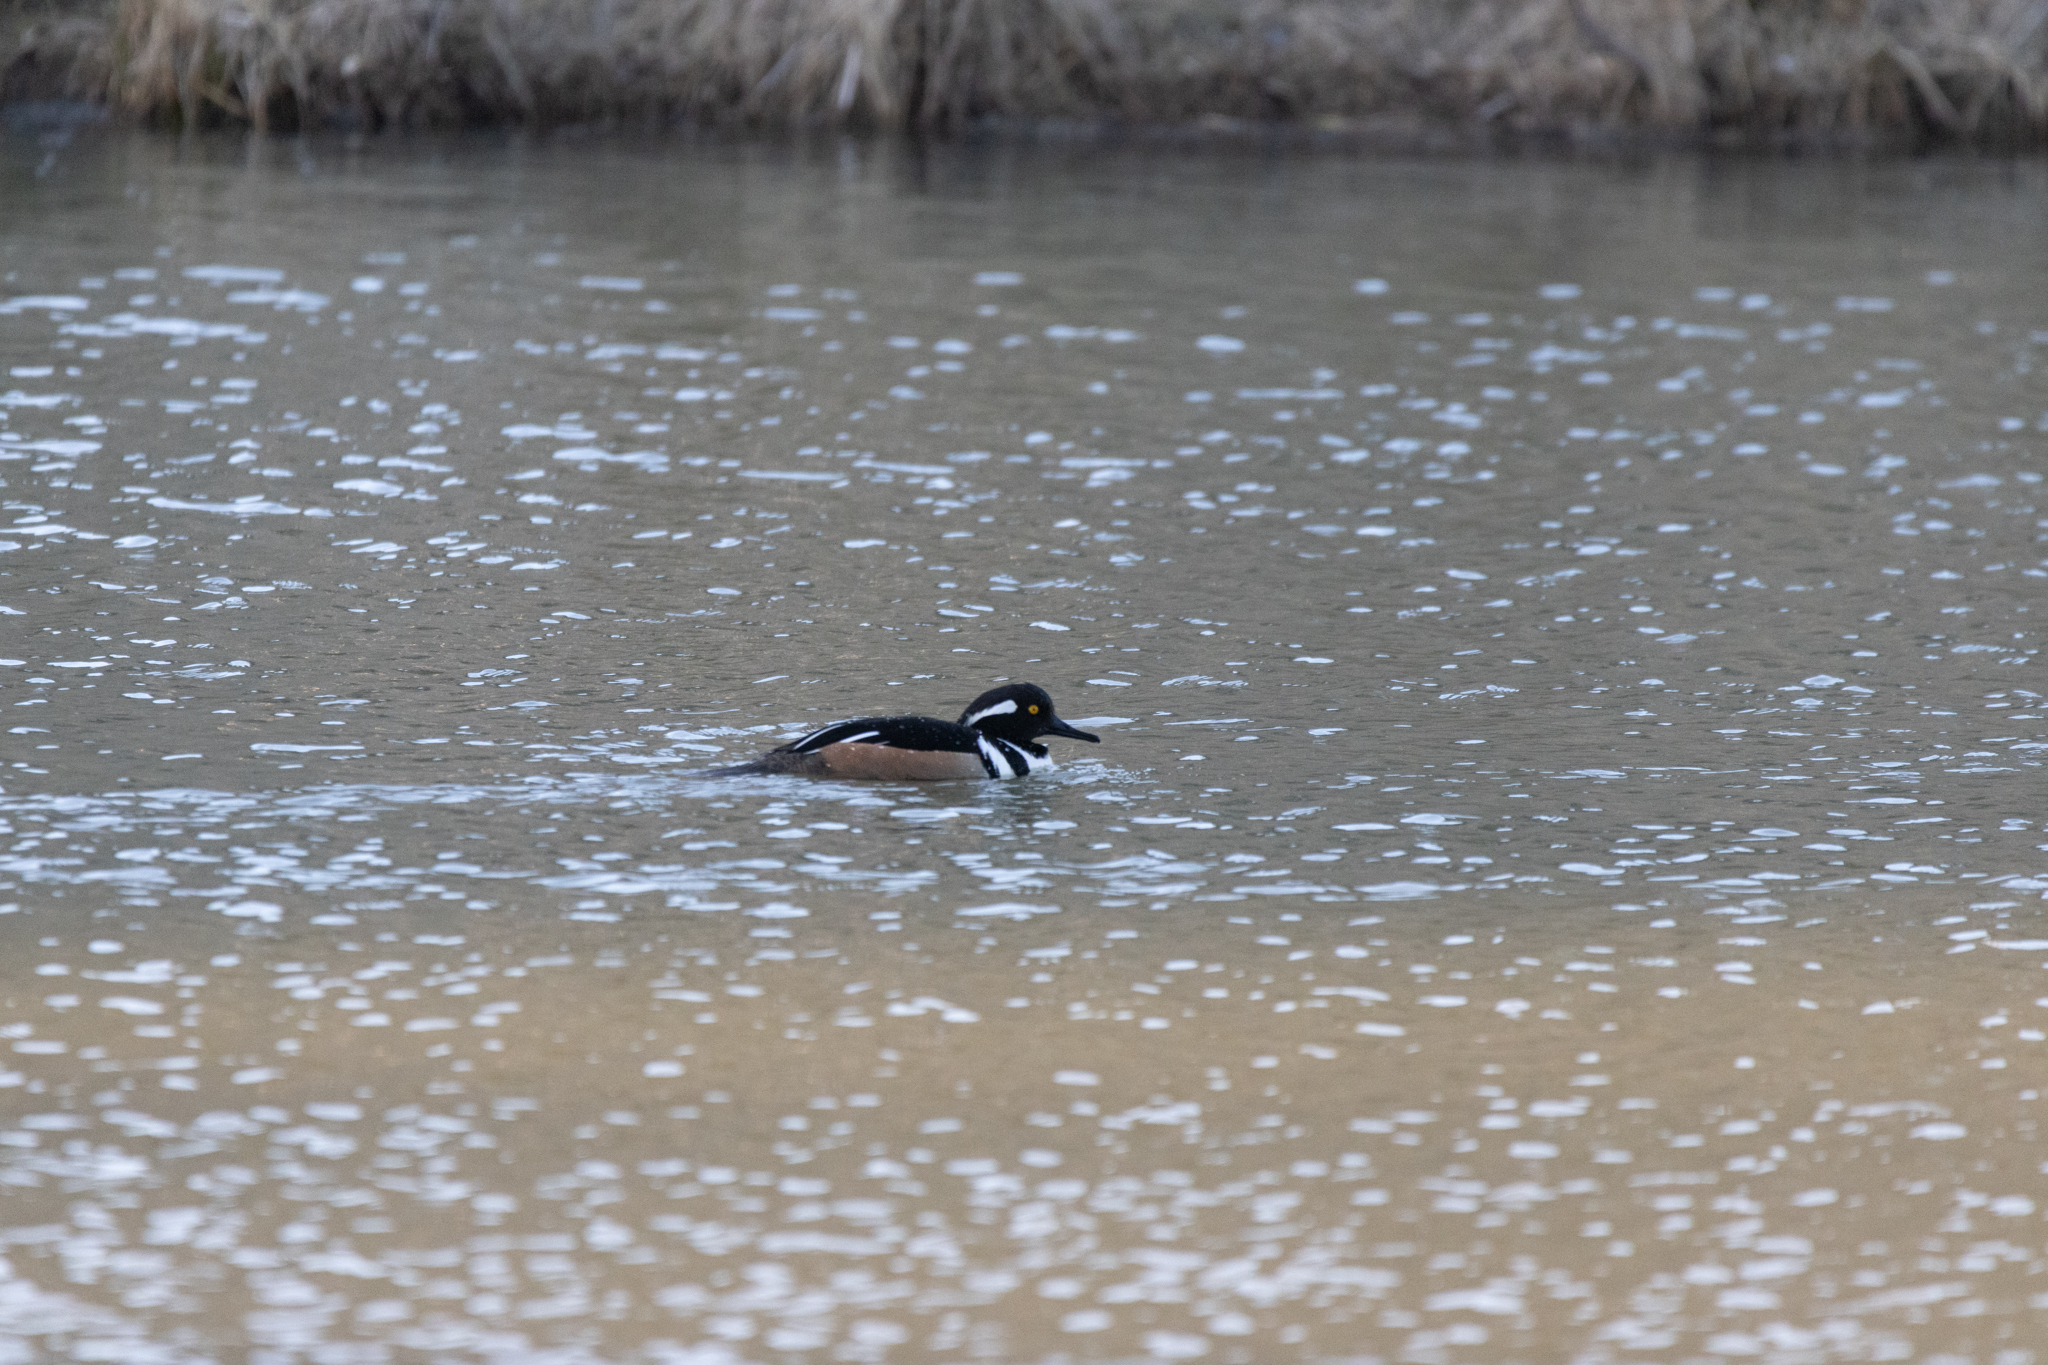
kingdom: Animalia
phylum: Chordata
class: Aves
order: Anseriformes
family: Anatidae
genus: Lophodytes
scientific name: Lophodytes cucullatus
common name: Hooded merganser
